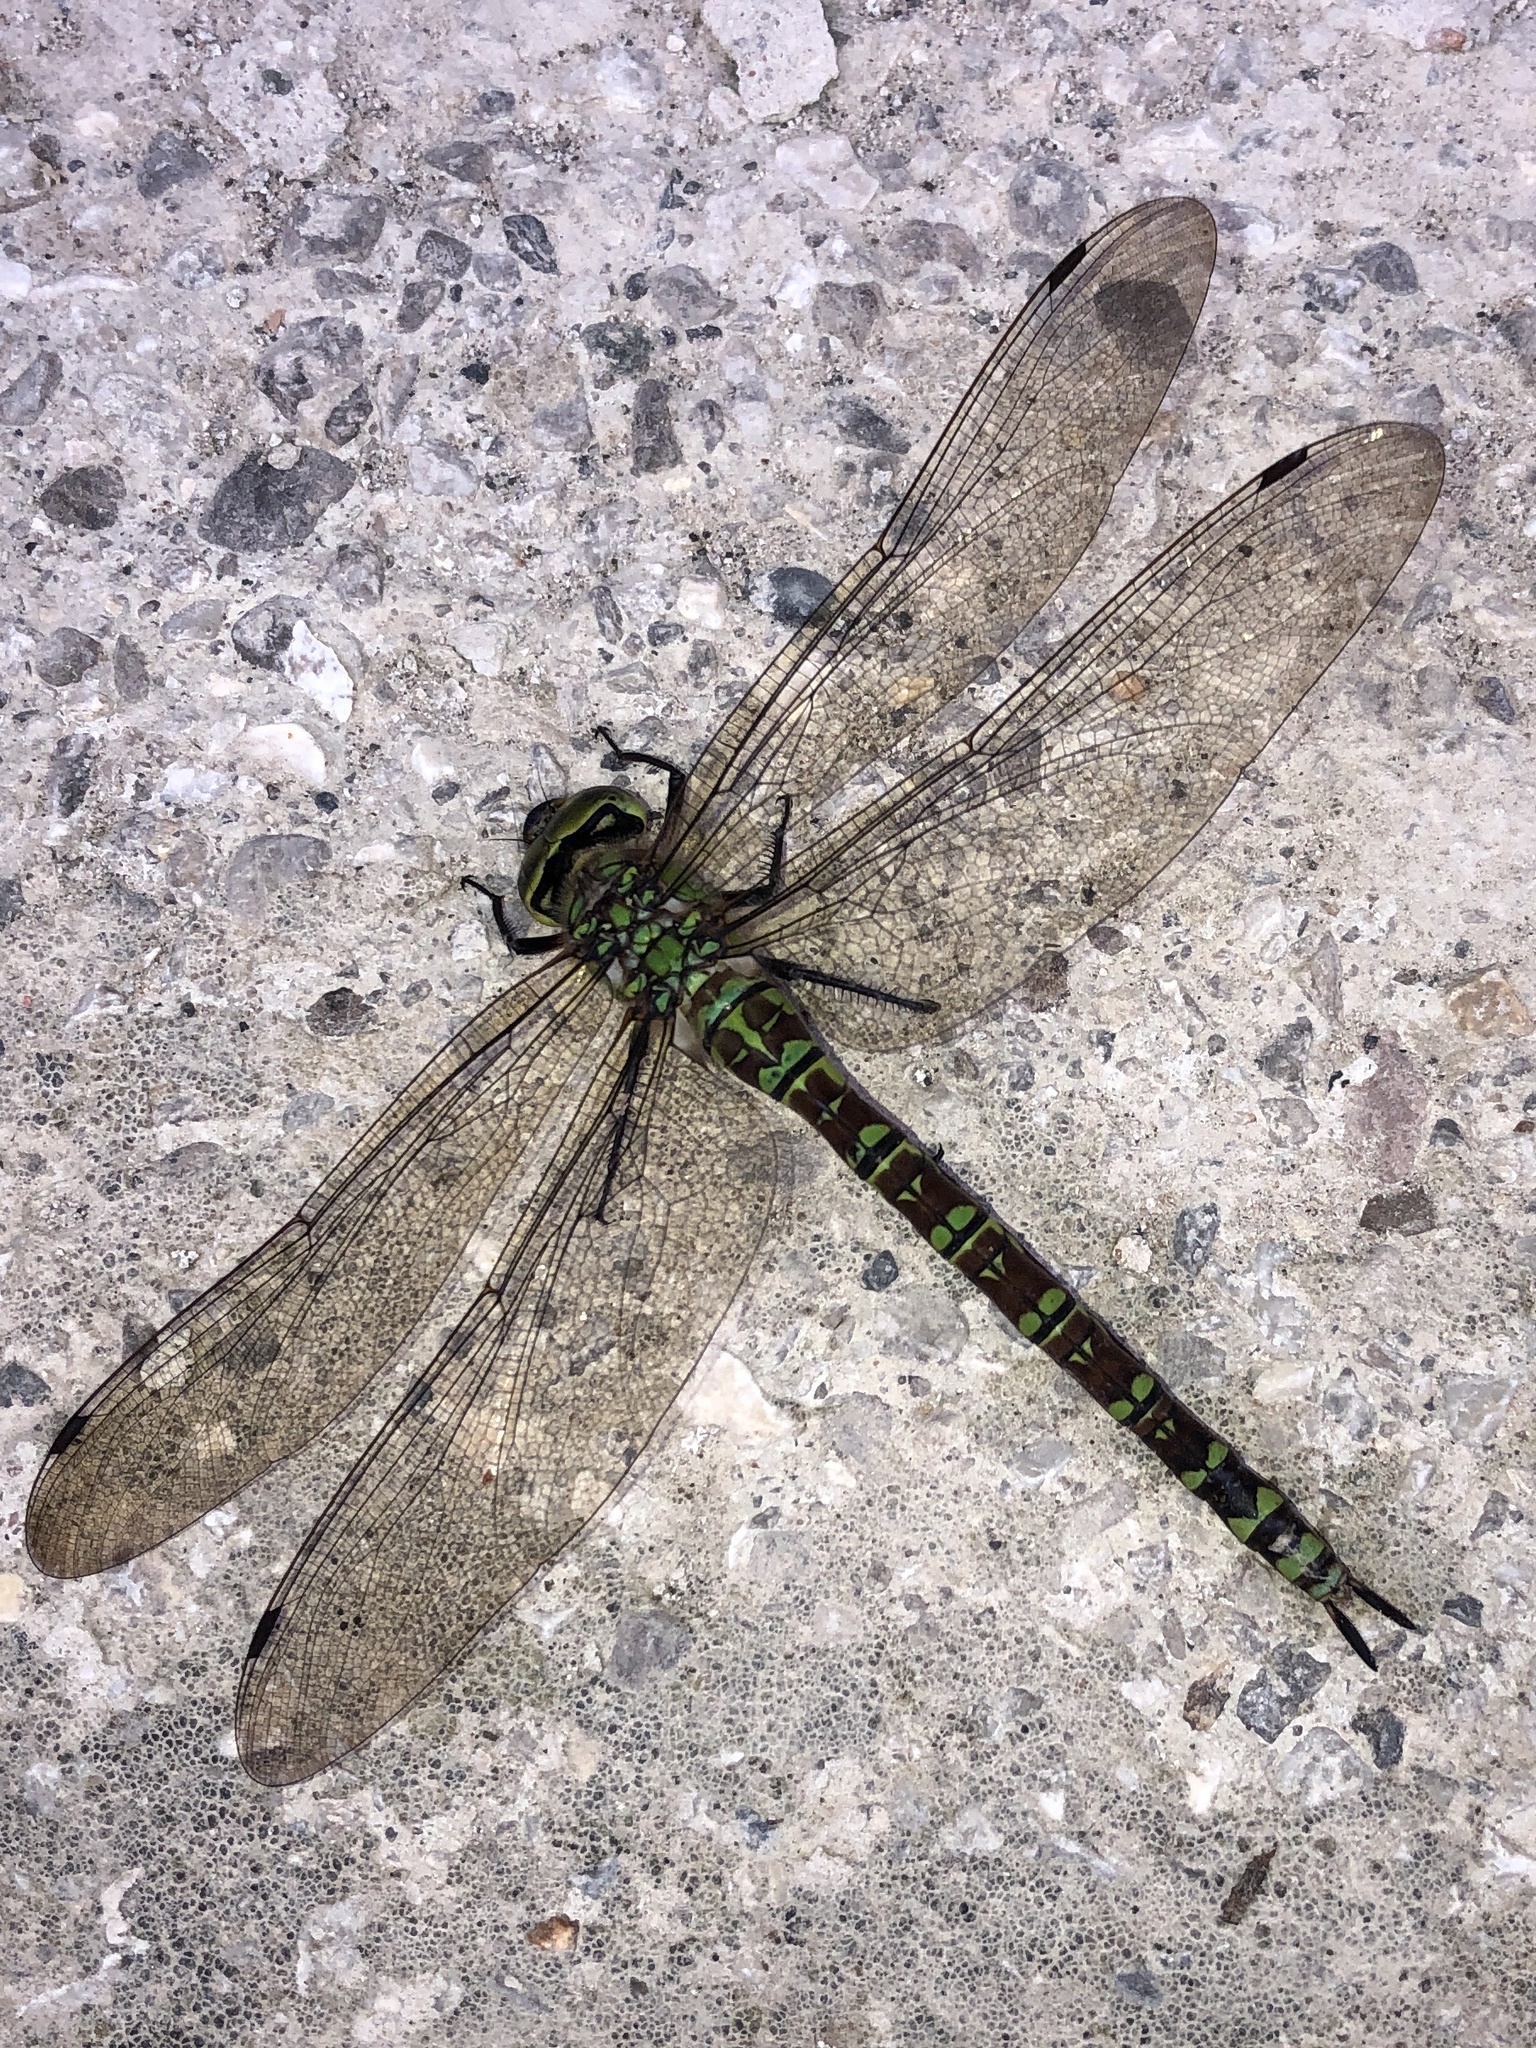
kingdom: Animalia
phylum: Arthropoda
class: Insecta
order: Odonata
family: Aeshnidae
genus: Aeshna
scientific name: Aeshna cyanea
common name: Southern hawker
